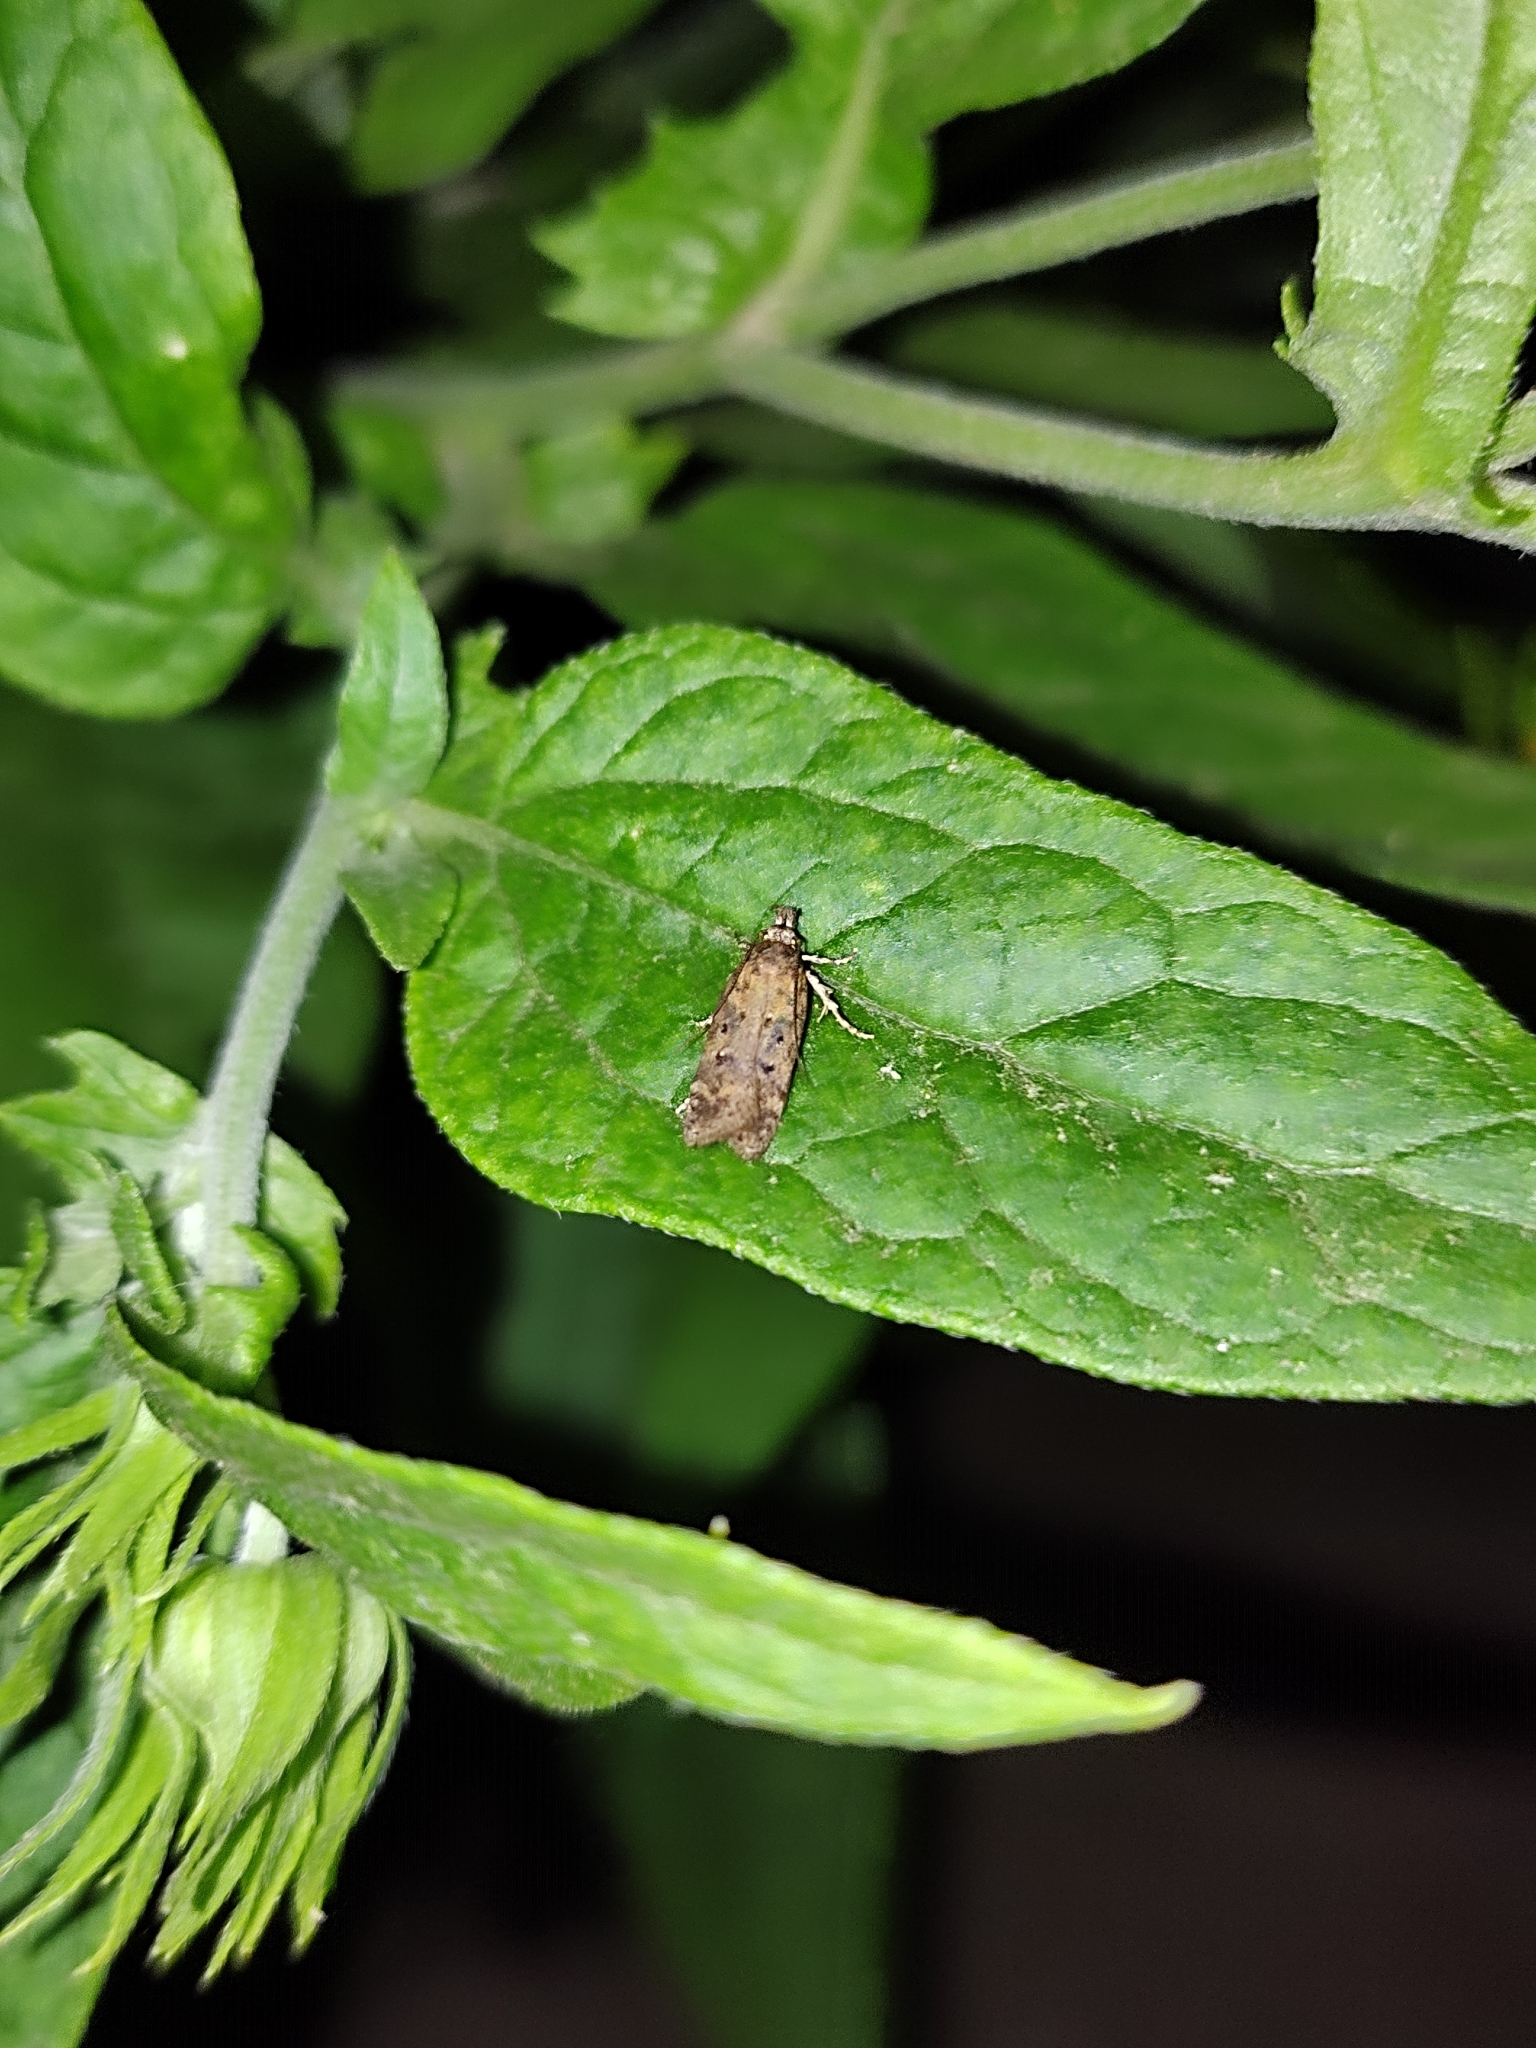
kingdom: Animalia
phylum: Arthropoda
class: Insecta
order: Lepidoptera
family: Gelechiidae
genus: Helcystogramma
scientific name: Helcystogramma lutatella
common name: Clay crest
